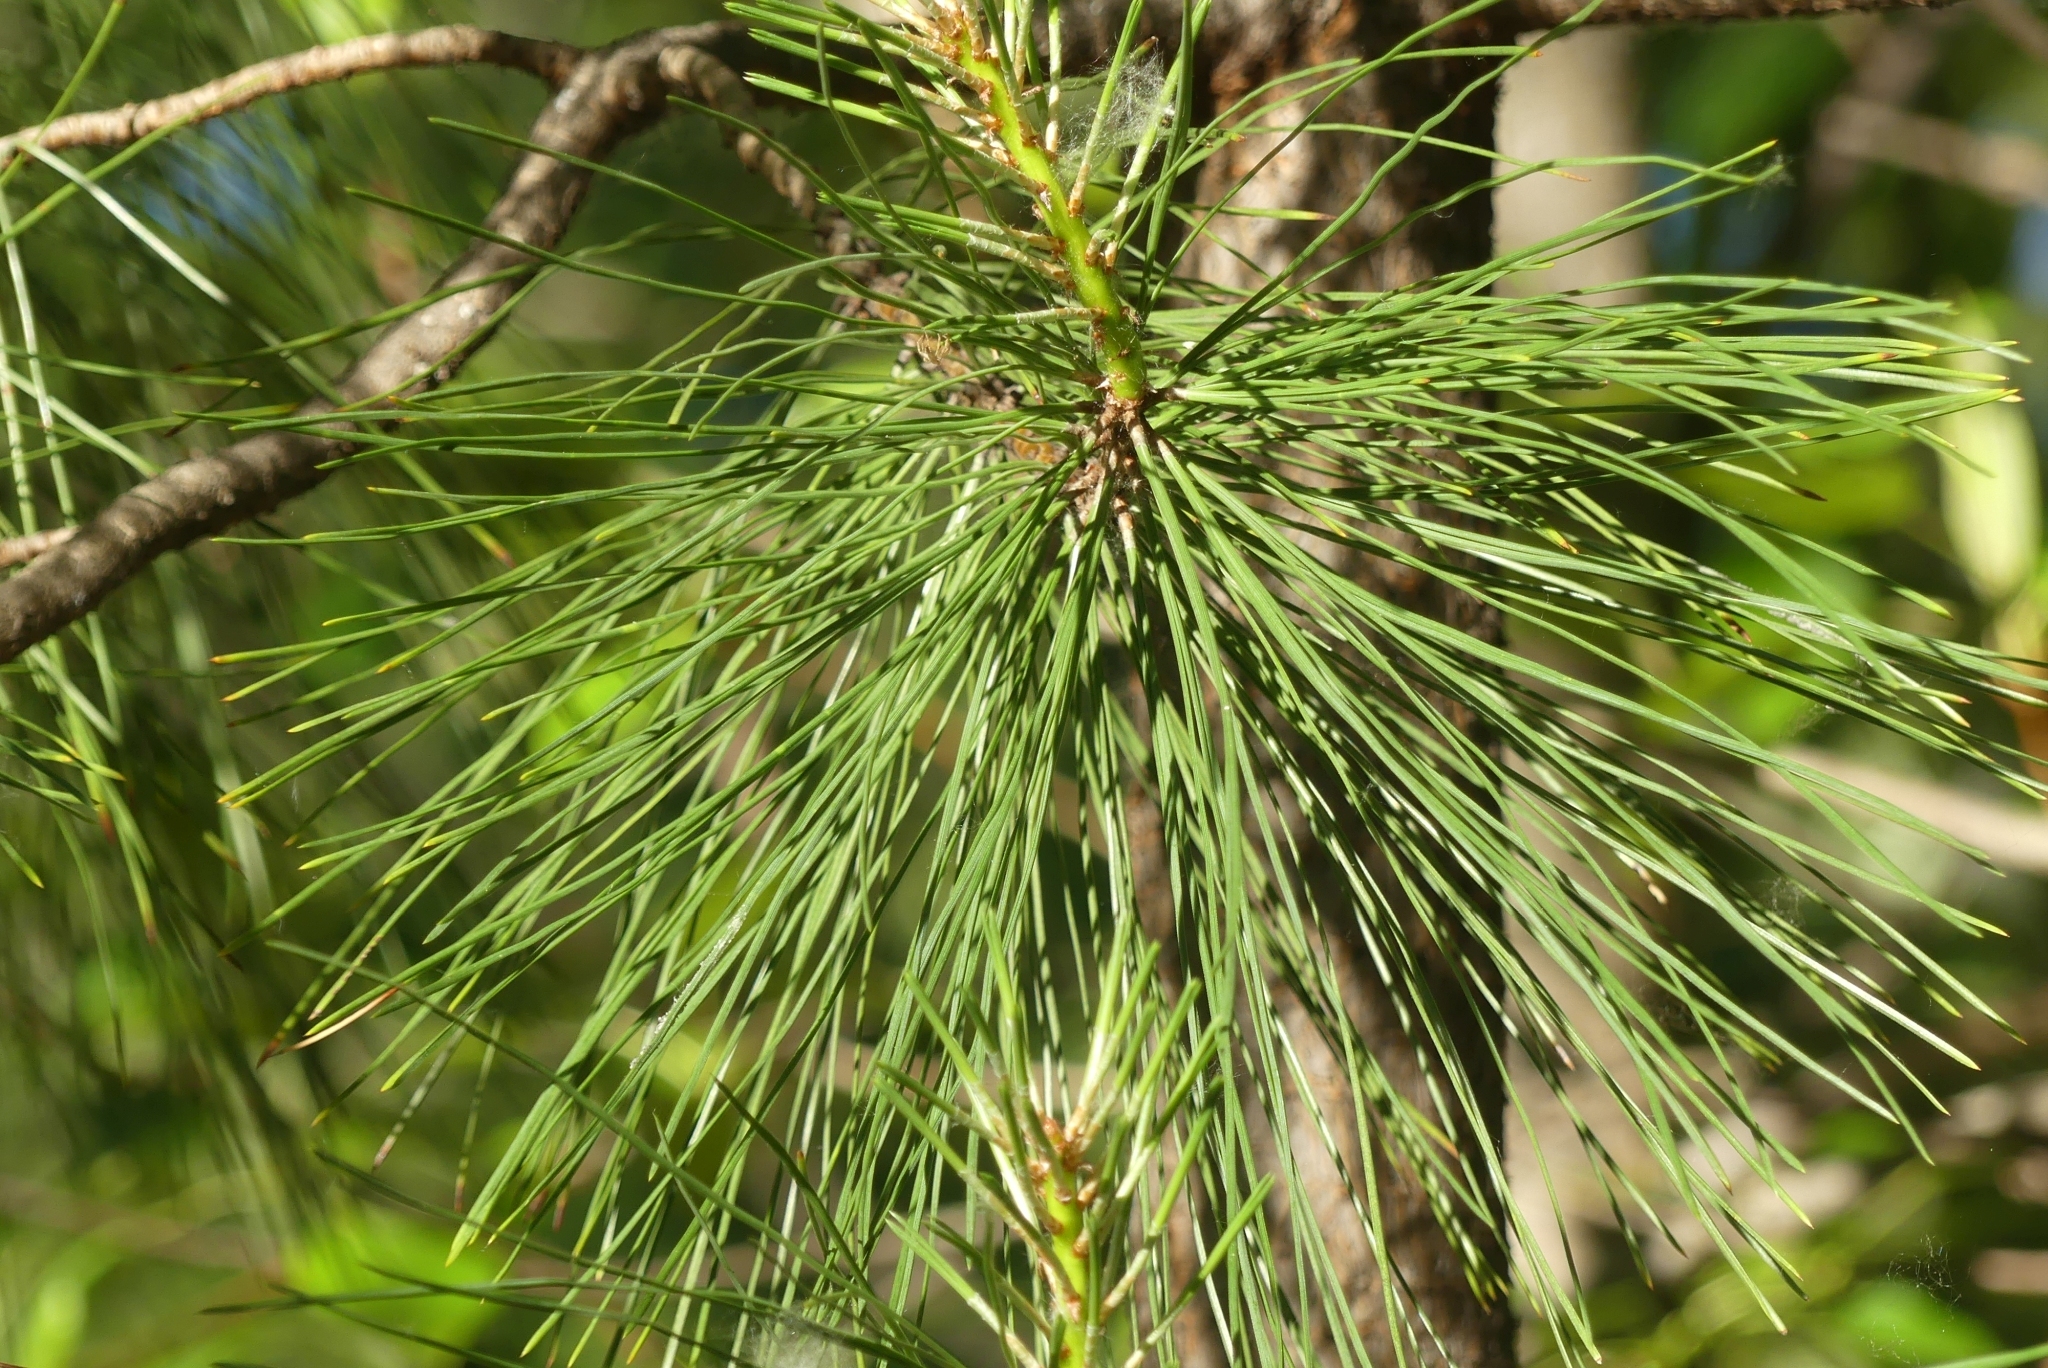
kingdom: Plantae
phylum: Tracheophyta
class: Pinopsida
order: Pinales
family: Pinaceae
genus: Pinus
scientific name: Pinus ponderosa
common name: Western yellow-pine
